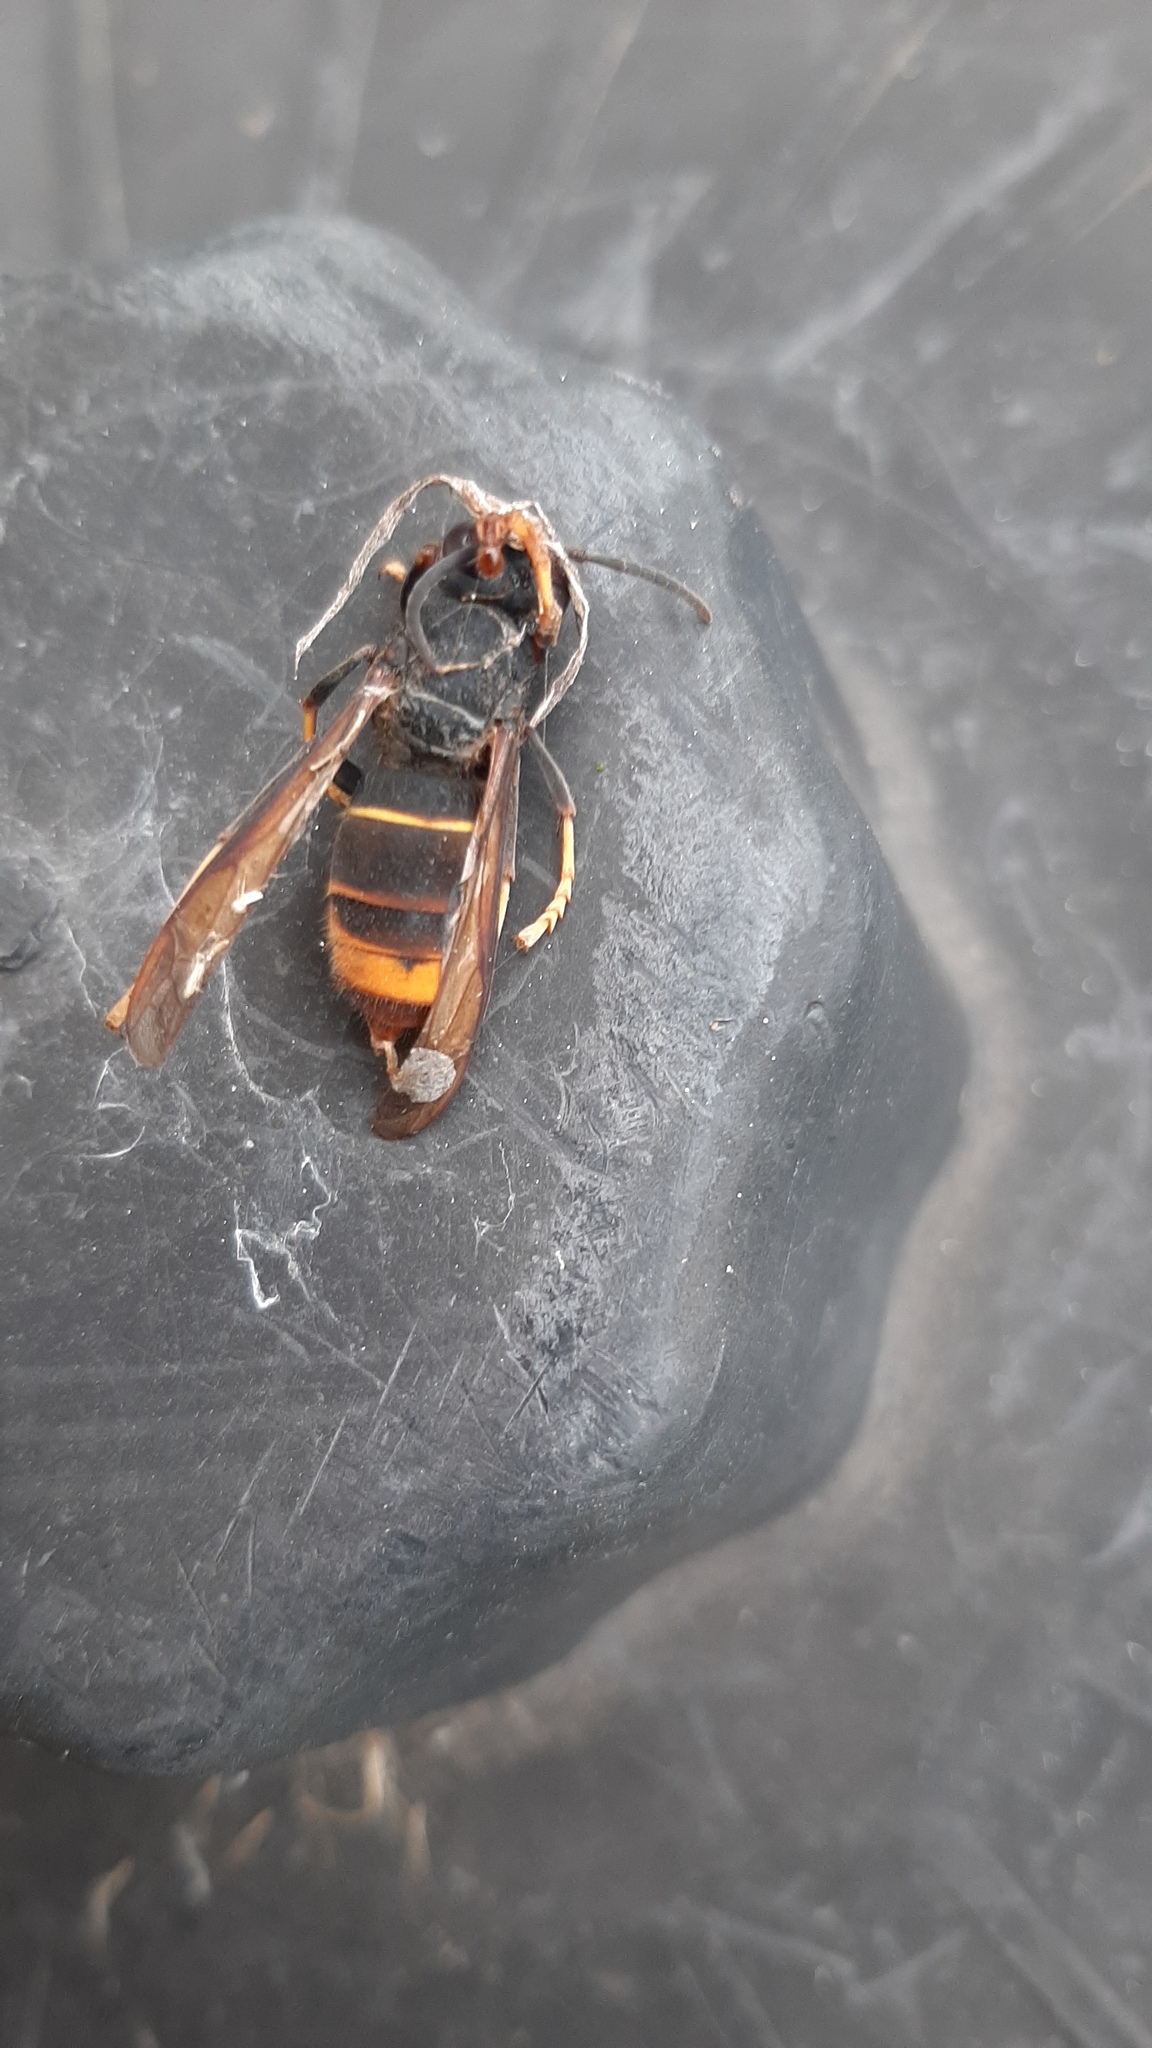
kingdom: Animalia
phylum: Arthropoda
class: Insecta
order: Hymenoptera
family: Vespidae
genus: Vespa
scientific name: Vespa velutina
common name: Asian hornet
